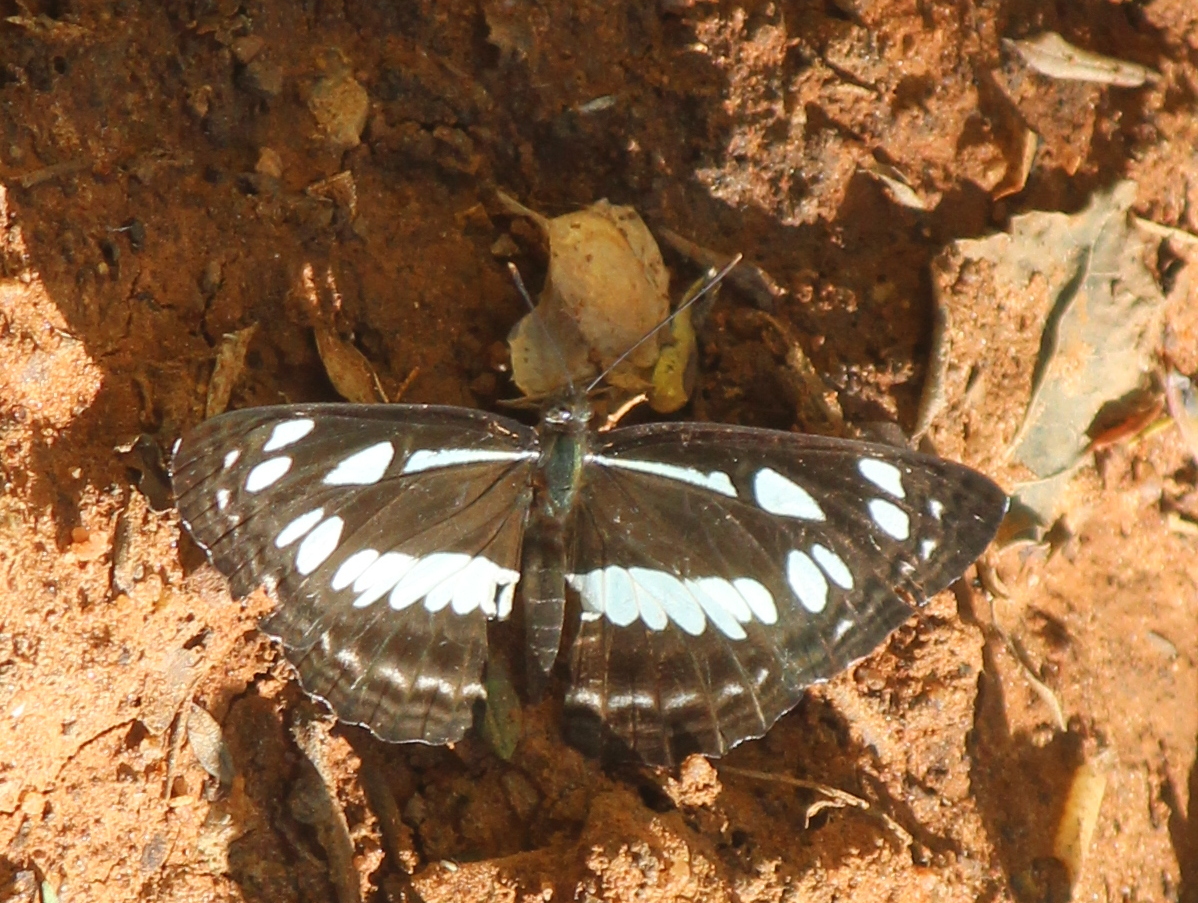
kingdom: Animalia
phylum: Arthropoda
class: Insecta
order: Lepidoptera
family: Nymphalidae
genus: Neptis
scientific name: Neptis jumbah
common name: Chestnut-streaked sailer
